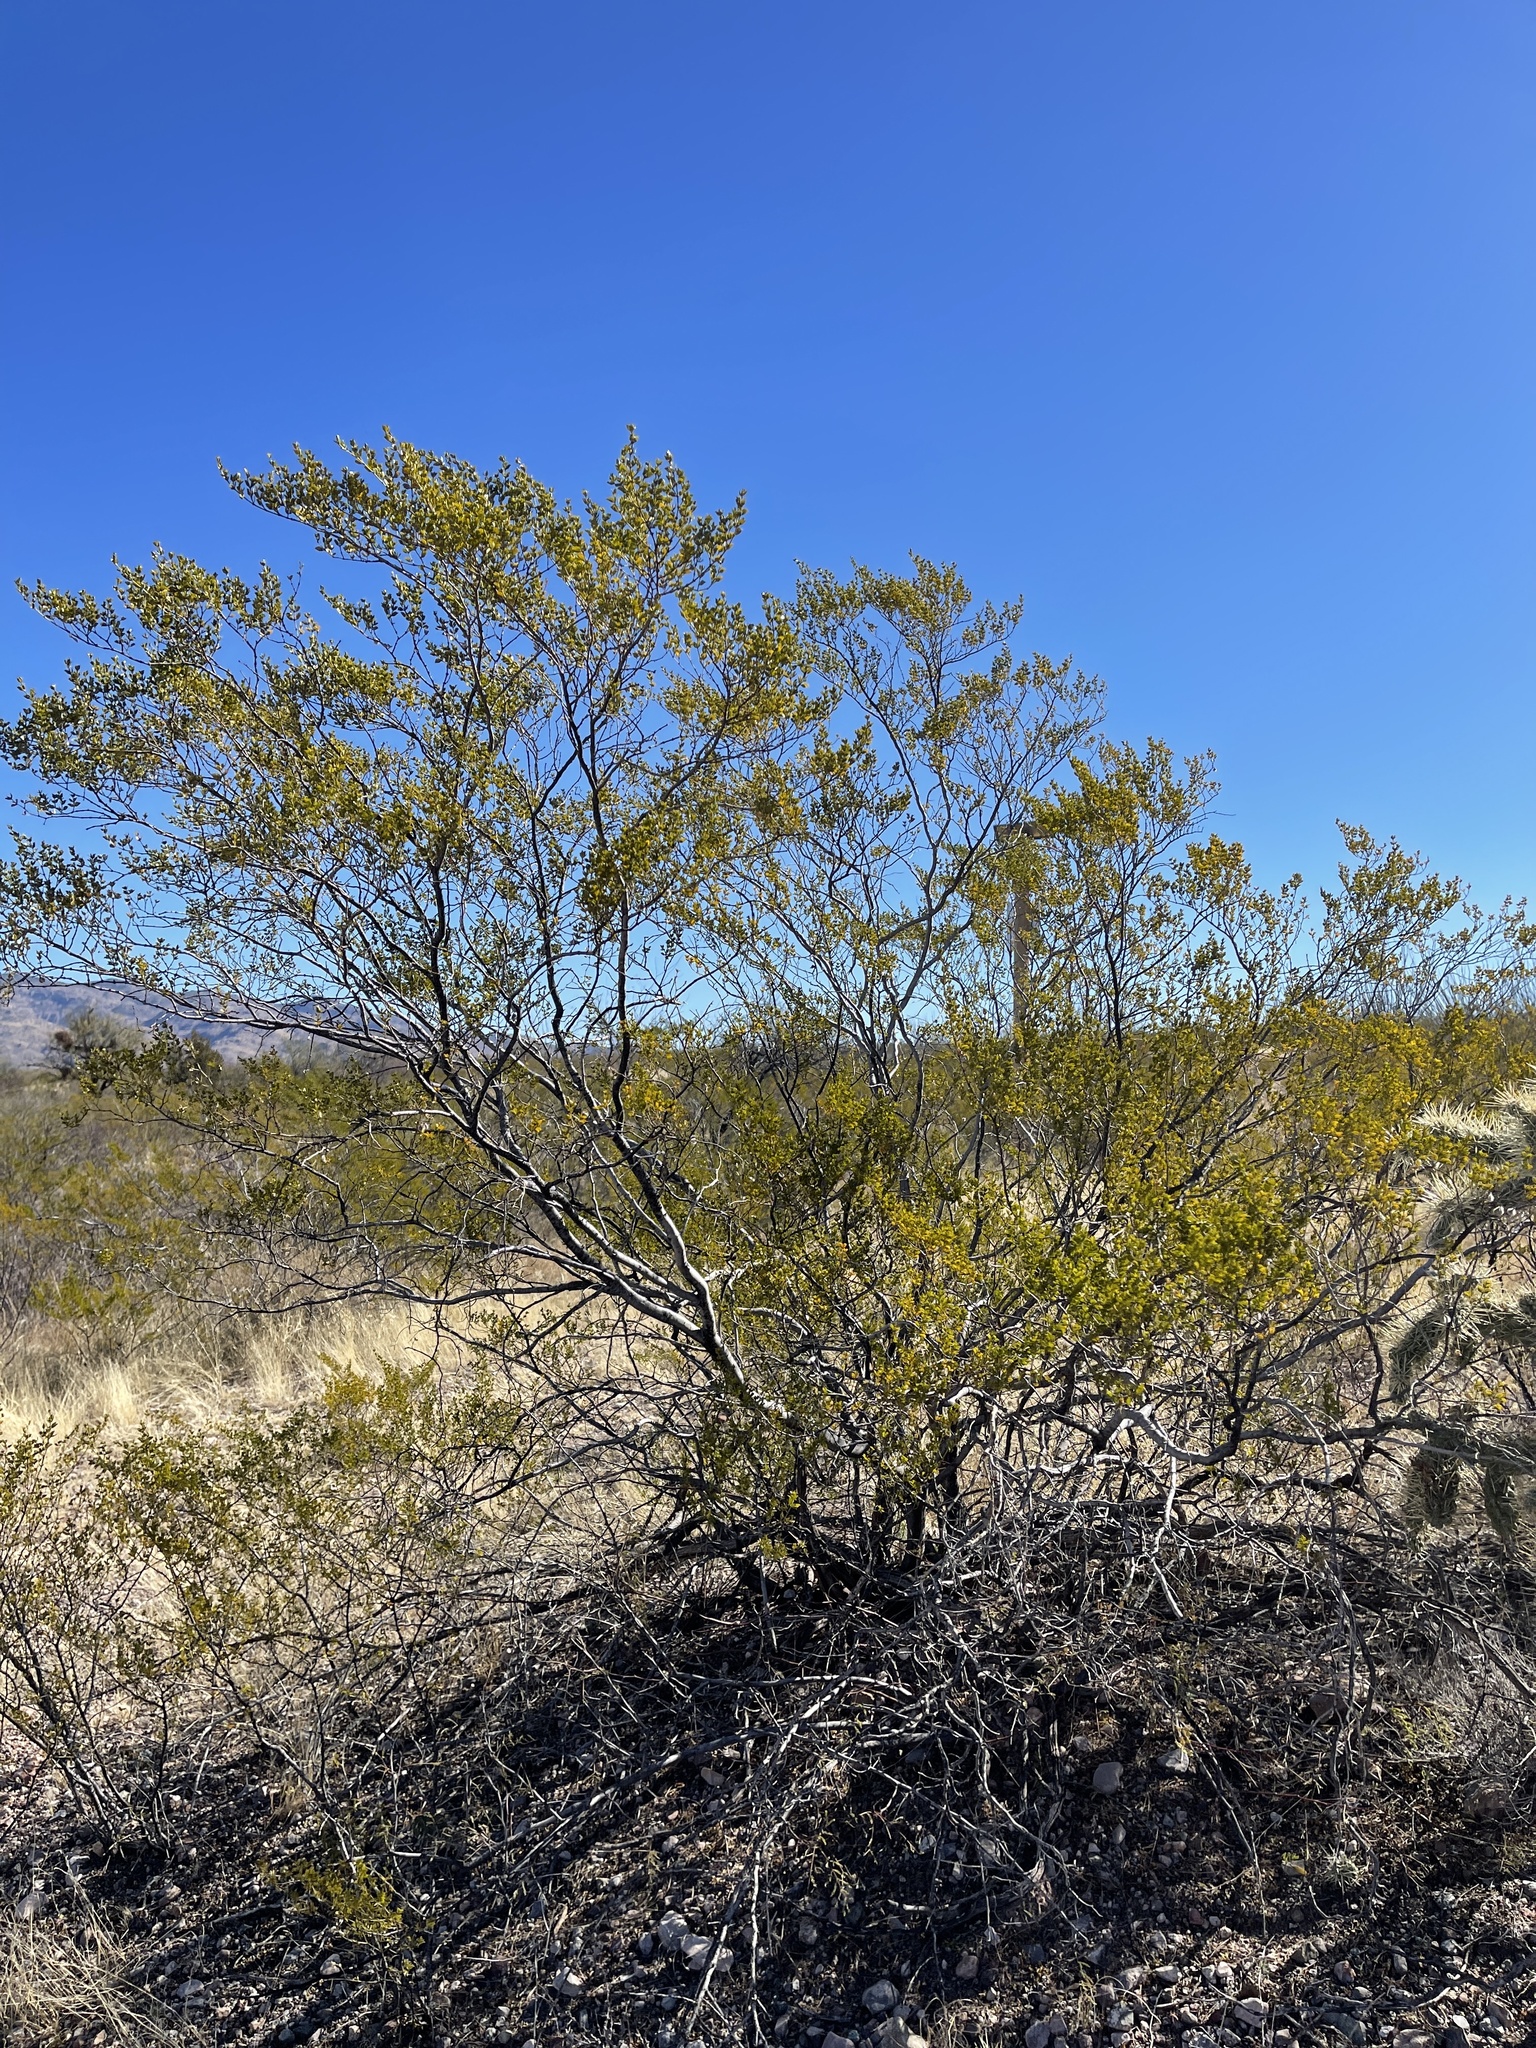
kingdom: Plantae
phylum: Tracheophyta
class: Magnoliopsida
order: Zygophyllales
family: Zygophyllaceae
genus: Larrea
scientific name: Larrea tridentata
